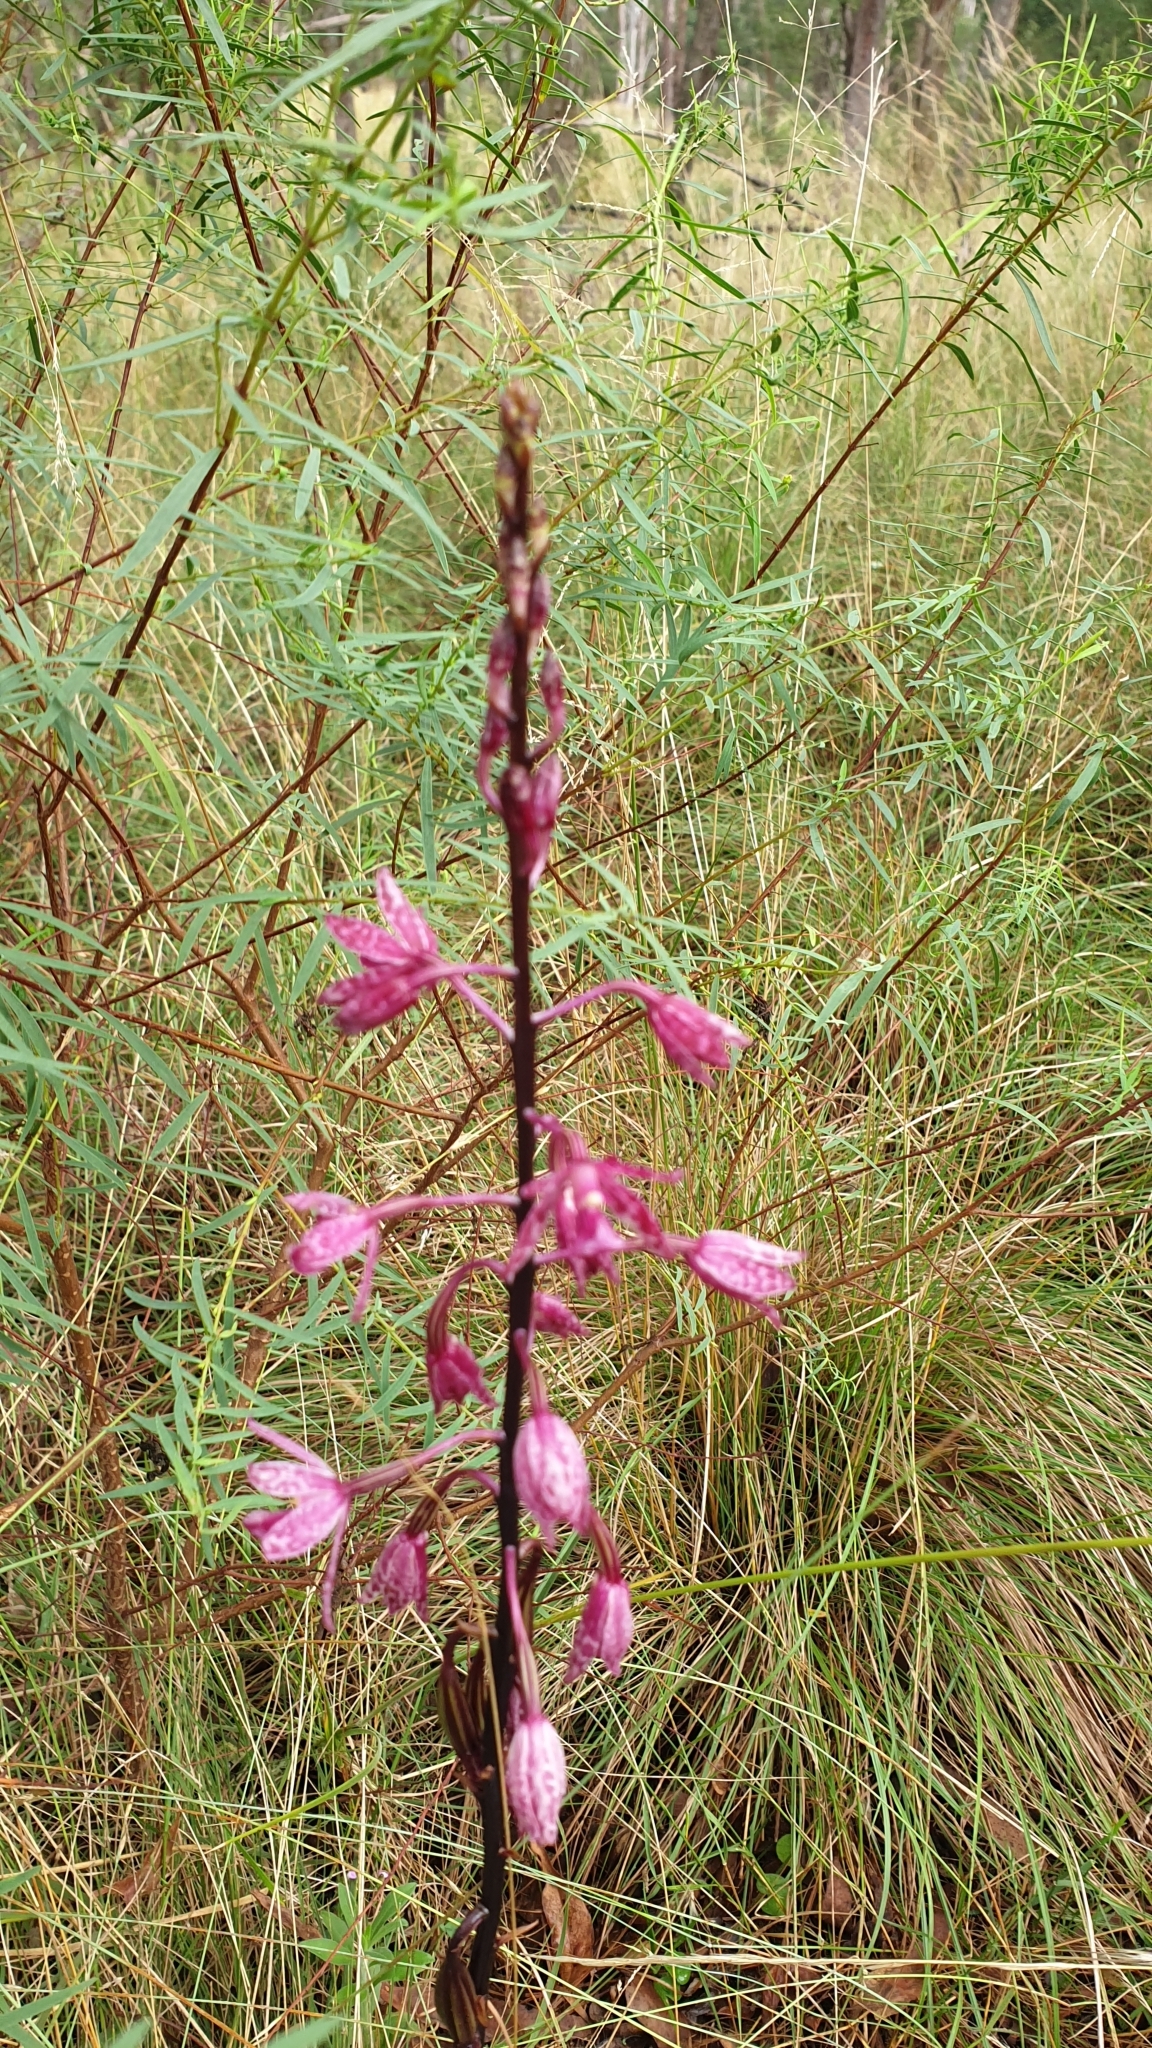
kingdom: Plantae
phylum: Tracheophyta
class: Liliopsida
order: Asparagales
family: Orchidaceae
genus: Dipodium
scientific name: Dipodium squamatum
